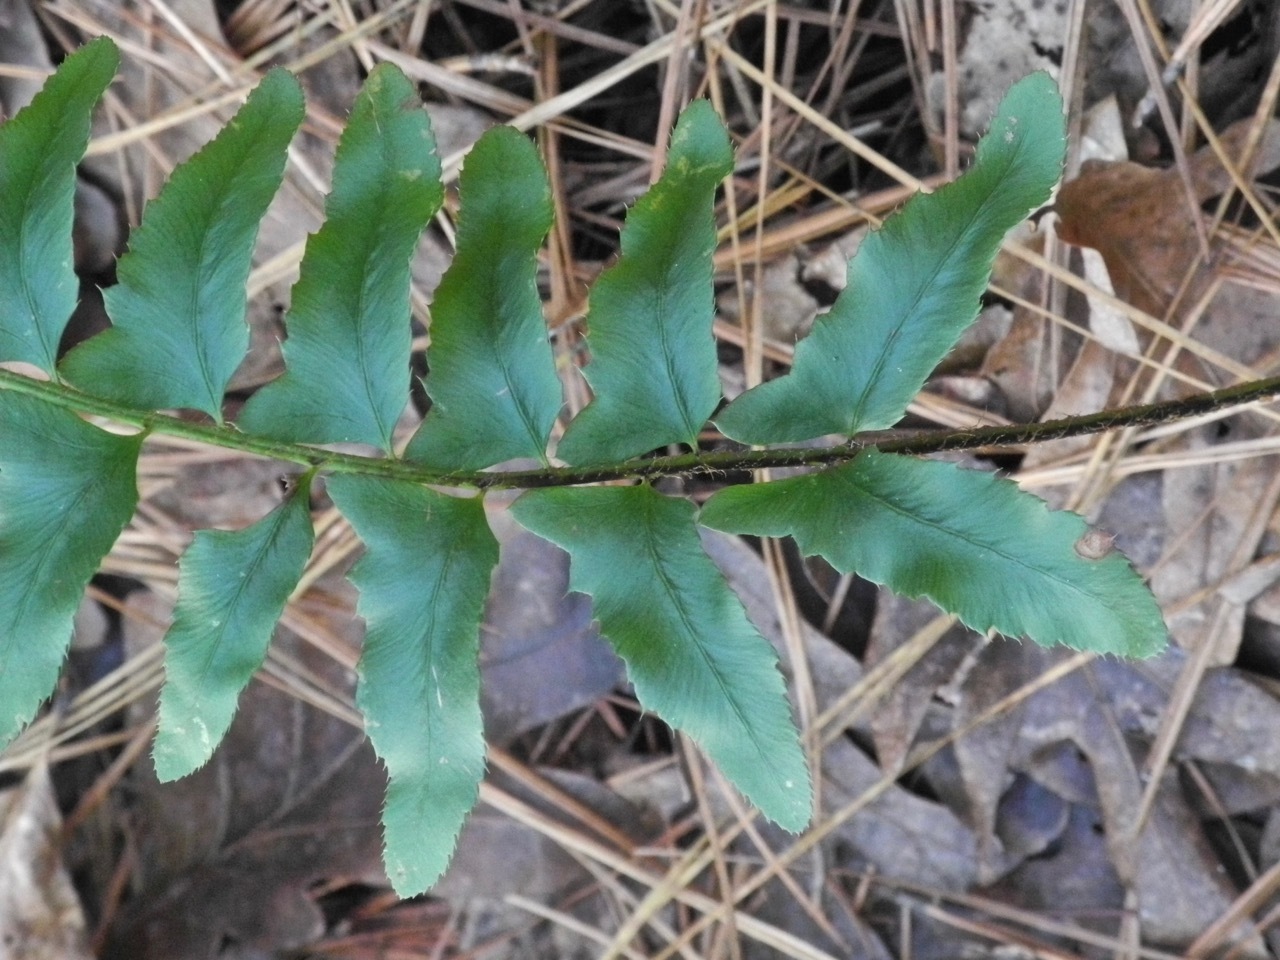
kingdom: Plantae
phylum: Tracheophyta
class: Polypodiopsida
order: Polypodiales
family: Dryopteridaceae
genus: Polystichum
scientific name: Polystichum acrostichoides
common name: Christmas fern
